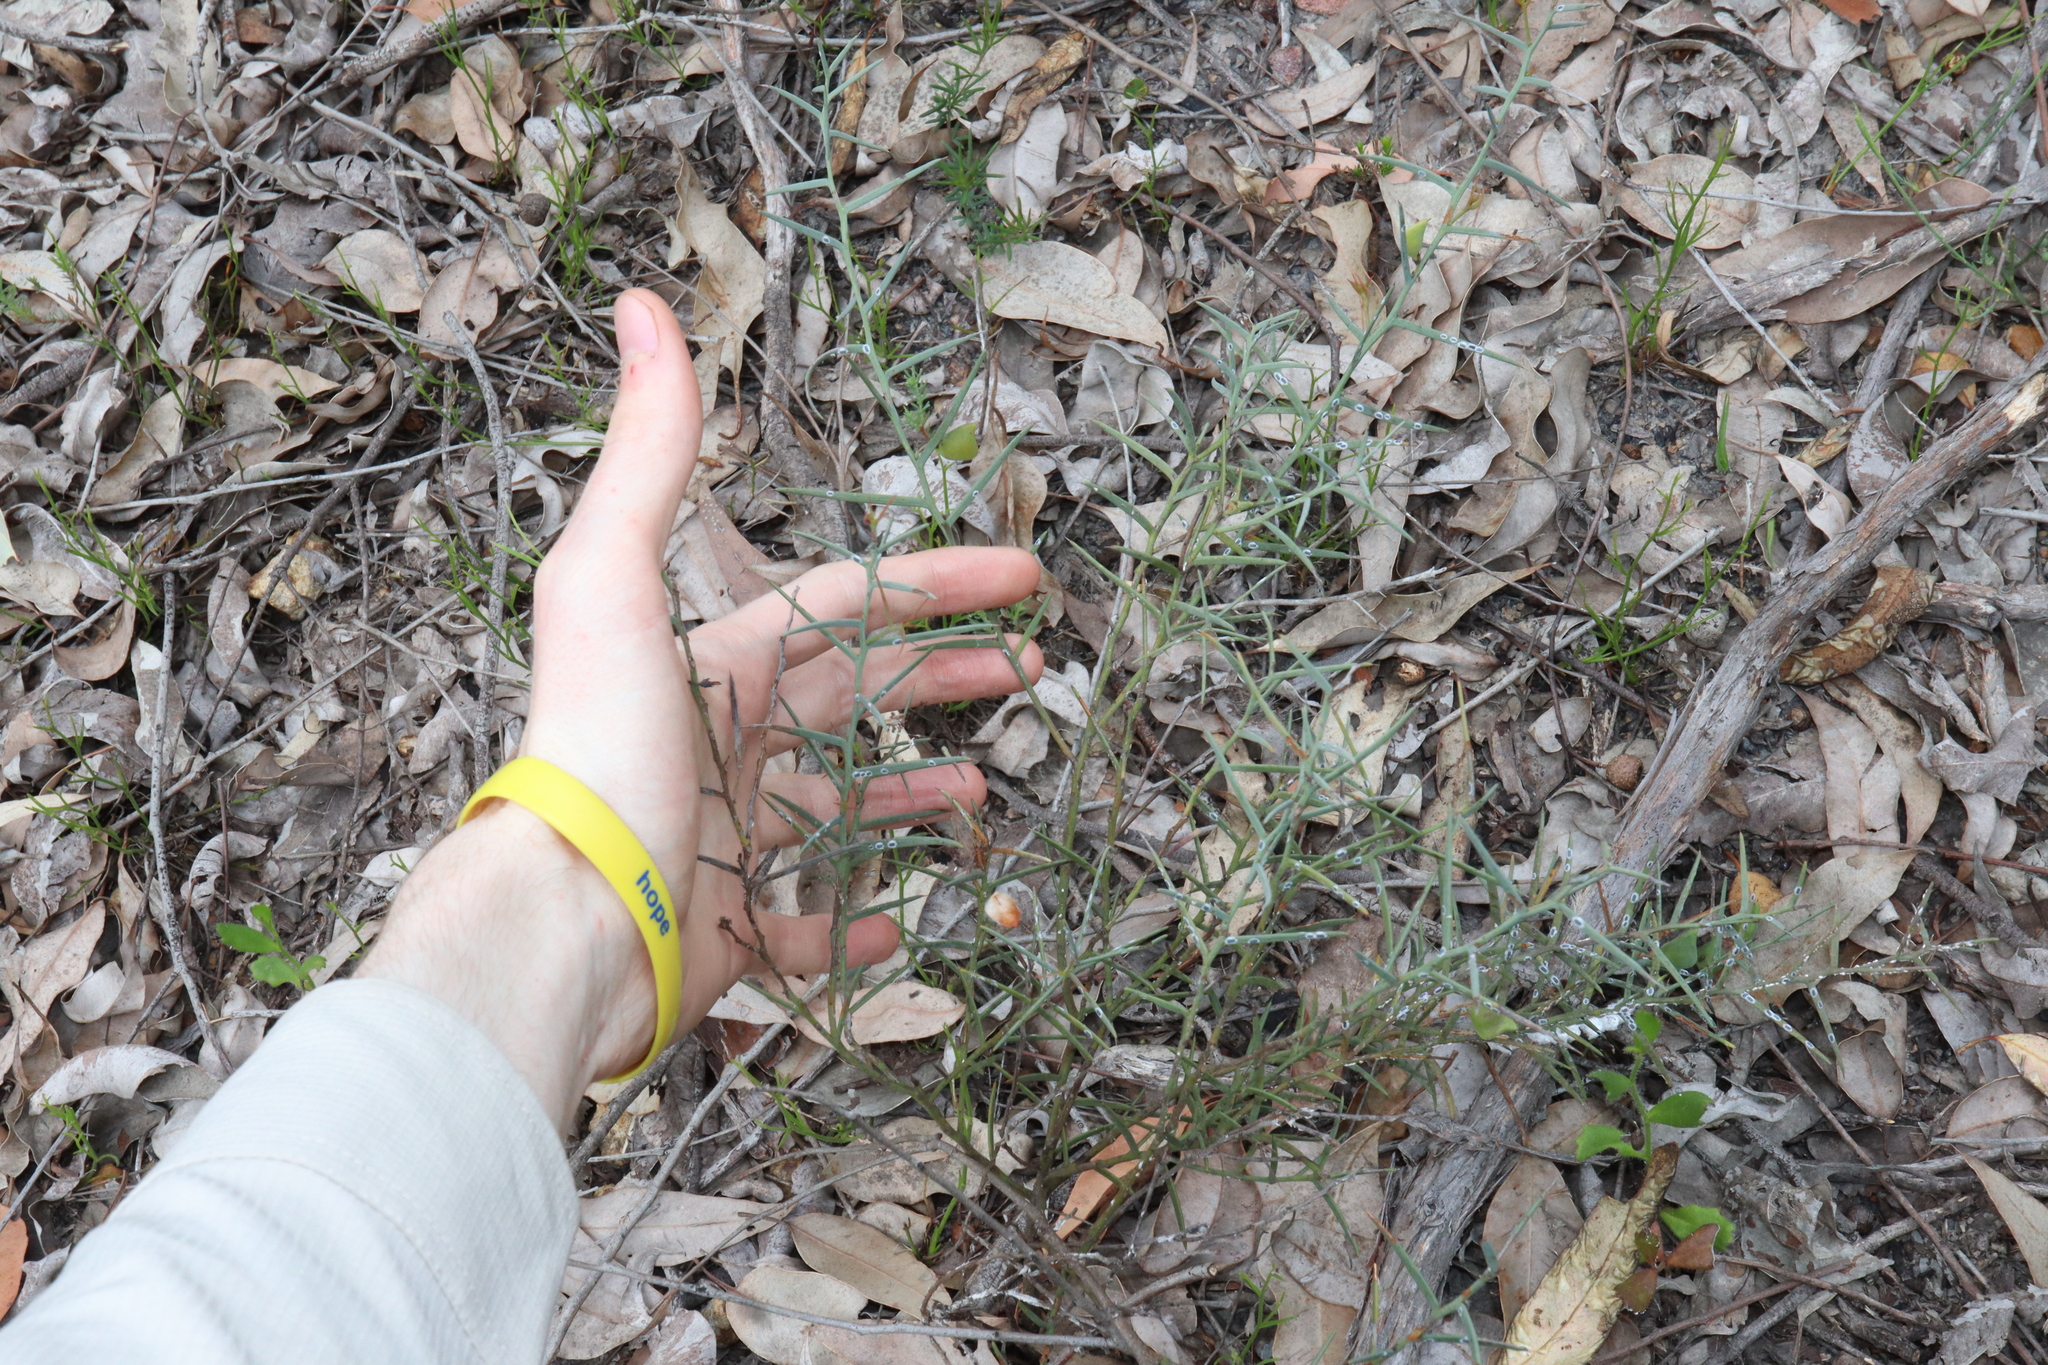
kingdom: Plantae
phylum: Tracheophyta
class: Magnoliopsida
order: Fabales
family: Fabaceae
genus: Daviesia
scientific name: Daviesia preissii
